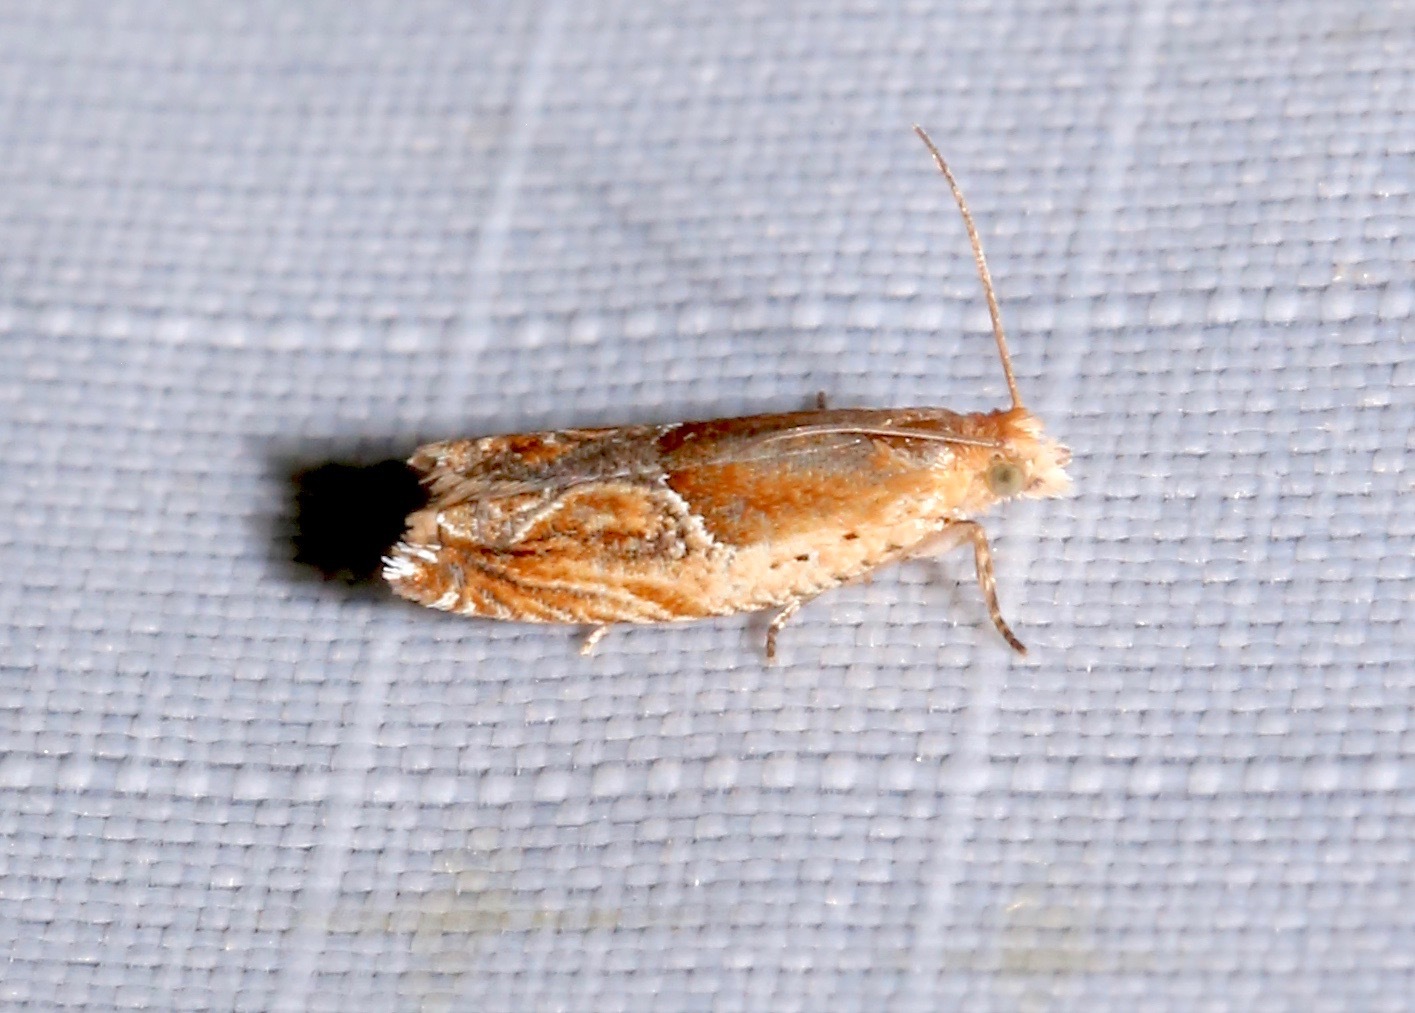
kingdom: Animalia
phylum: Arthropoda
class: Insecta
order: Lepidoptera
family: Tortricidae
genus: Ancylis
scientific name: Ancylis comptana
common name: Little roller
